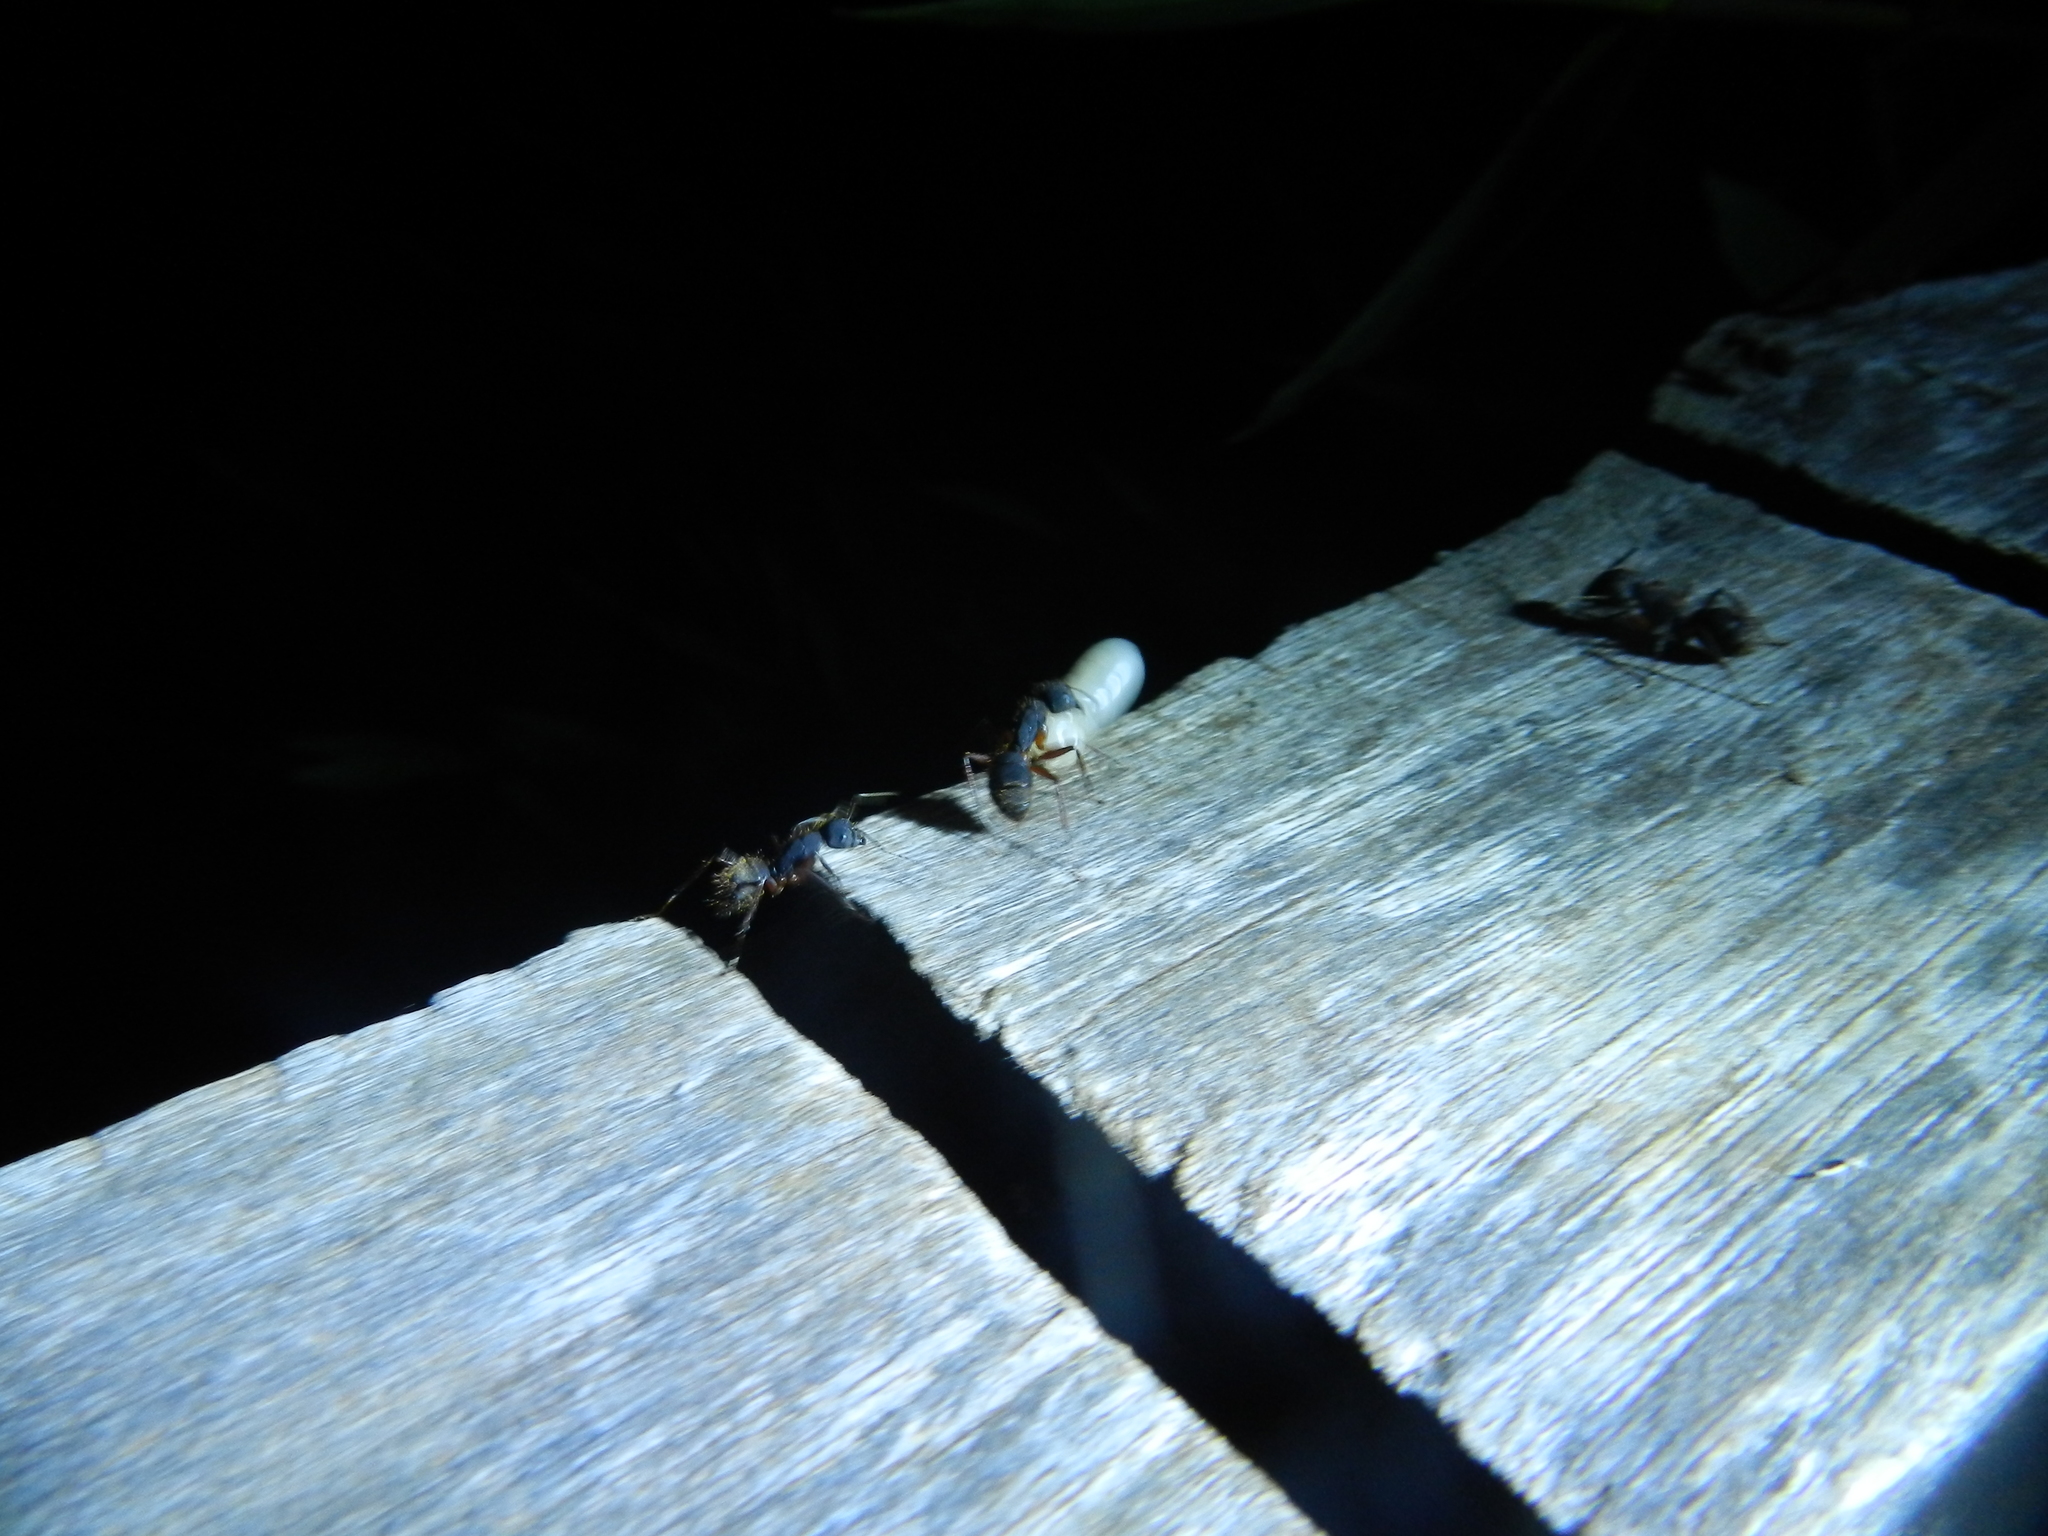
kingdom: Animalia
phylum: Arthropoda
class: Insecta
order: Hymenoptera
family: Formicidae
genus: Camponotus
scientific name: Camponotus rufipes
